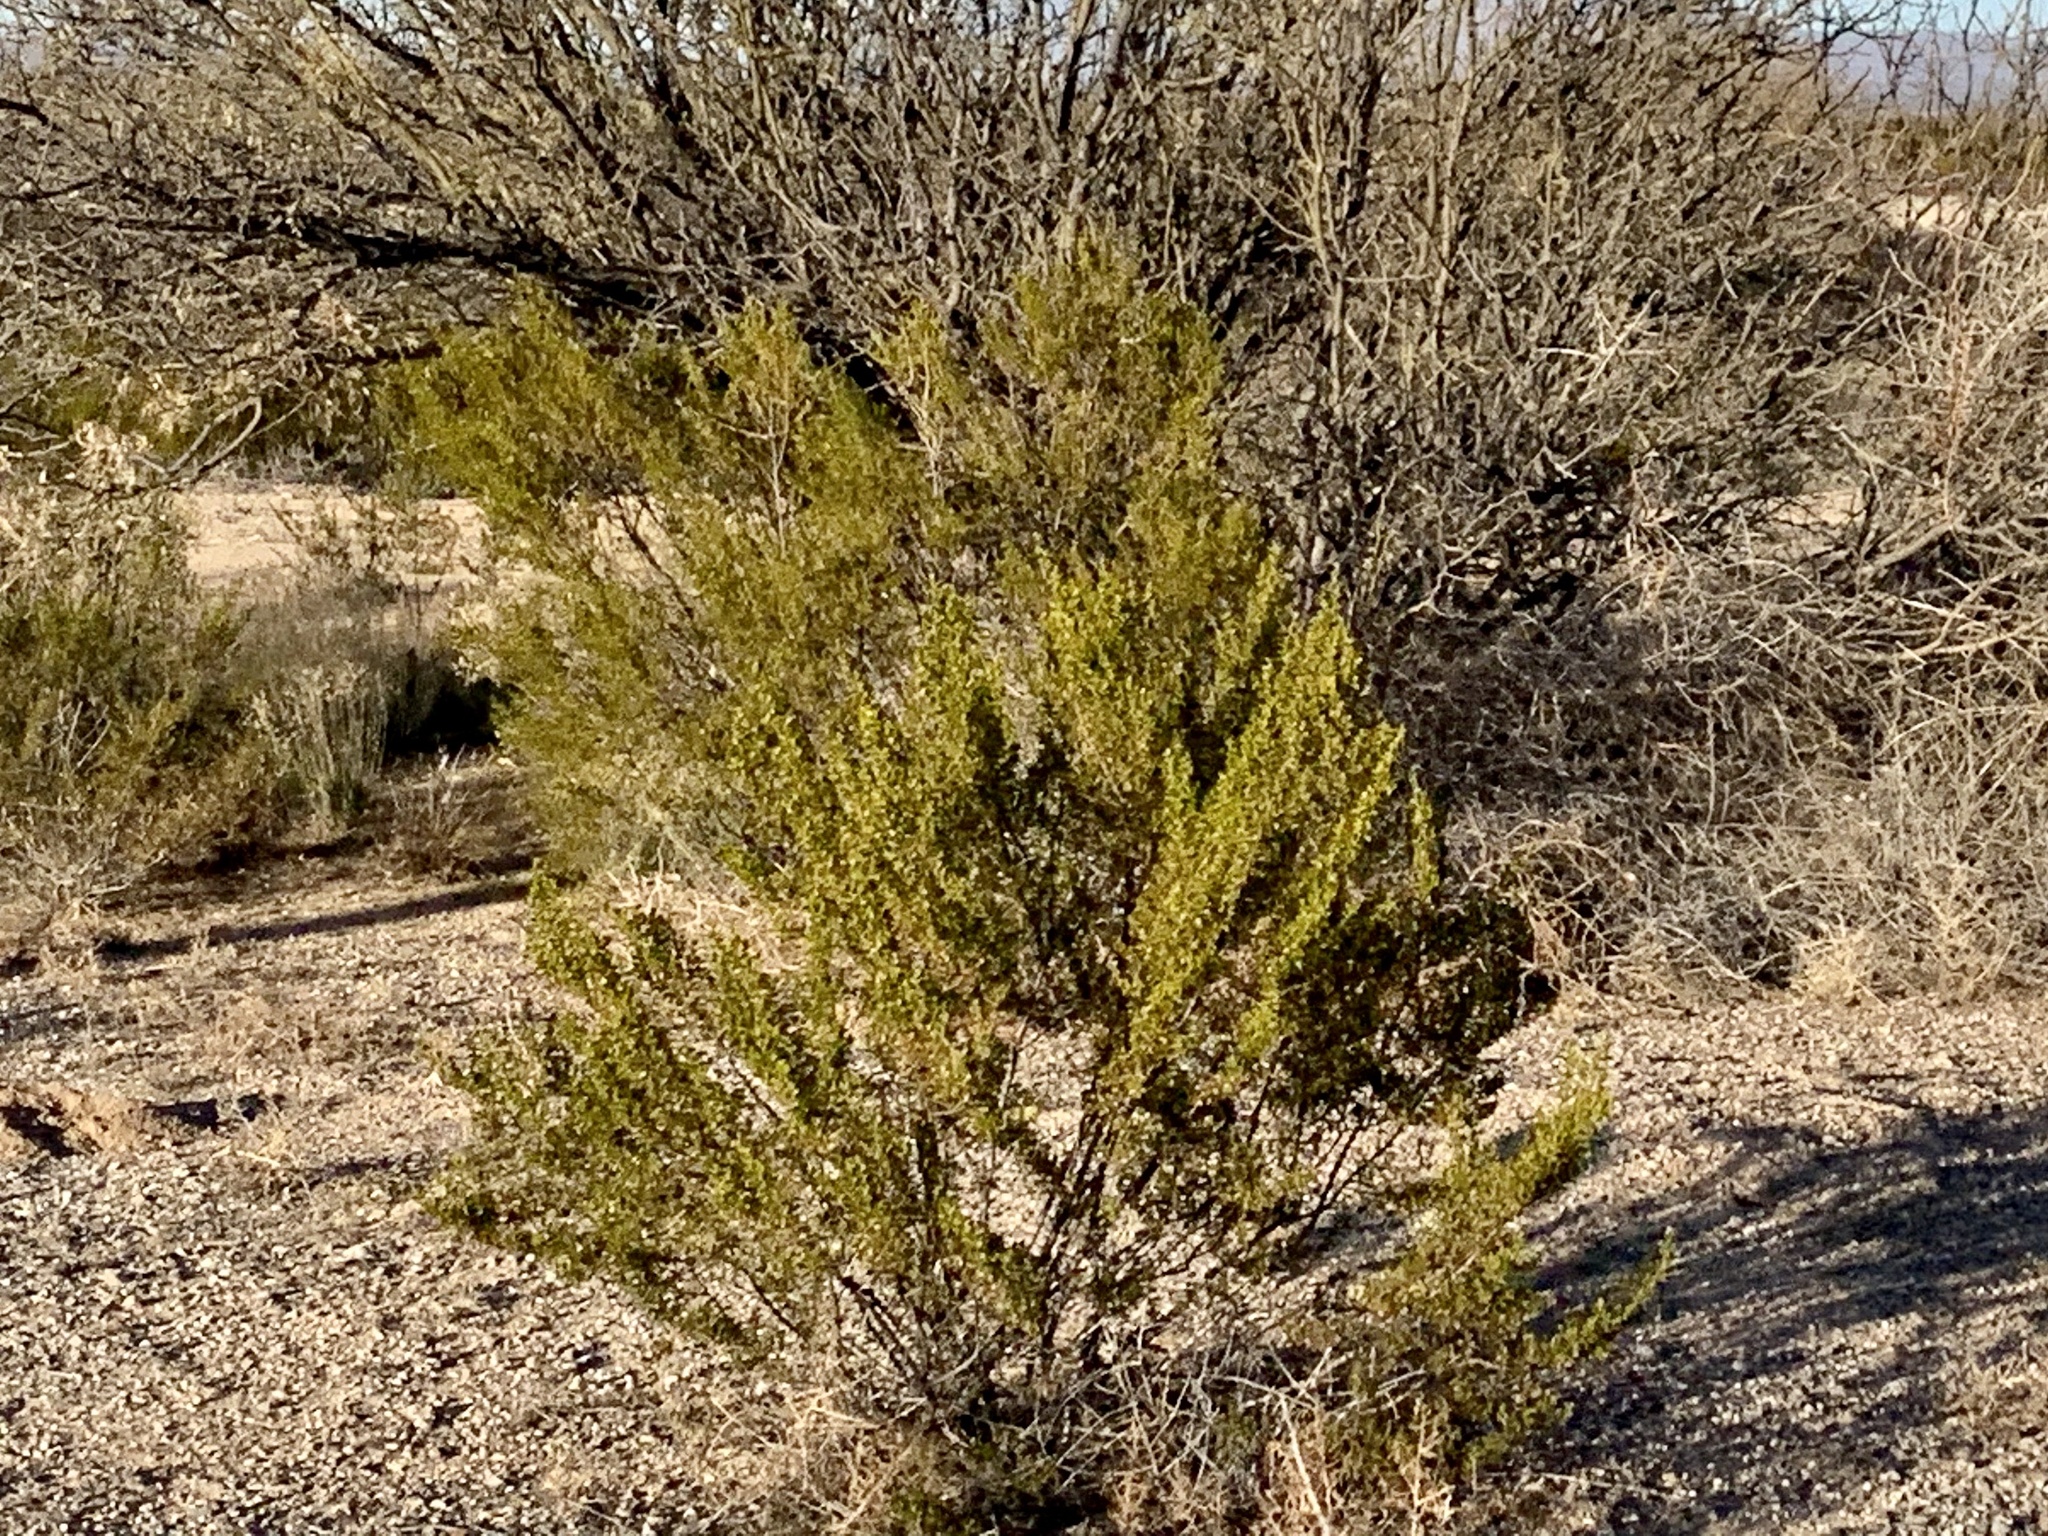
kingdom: Plantae
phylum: Tracheophyta
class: Magnoliopsida
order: Zygophyllales
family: Zygophyllaceae
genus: Larrea
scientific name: Larrea tridentata
